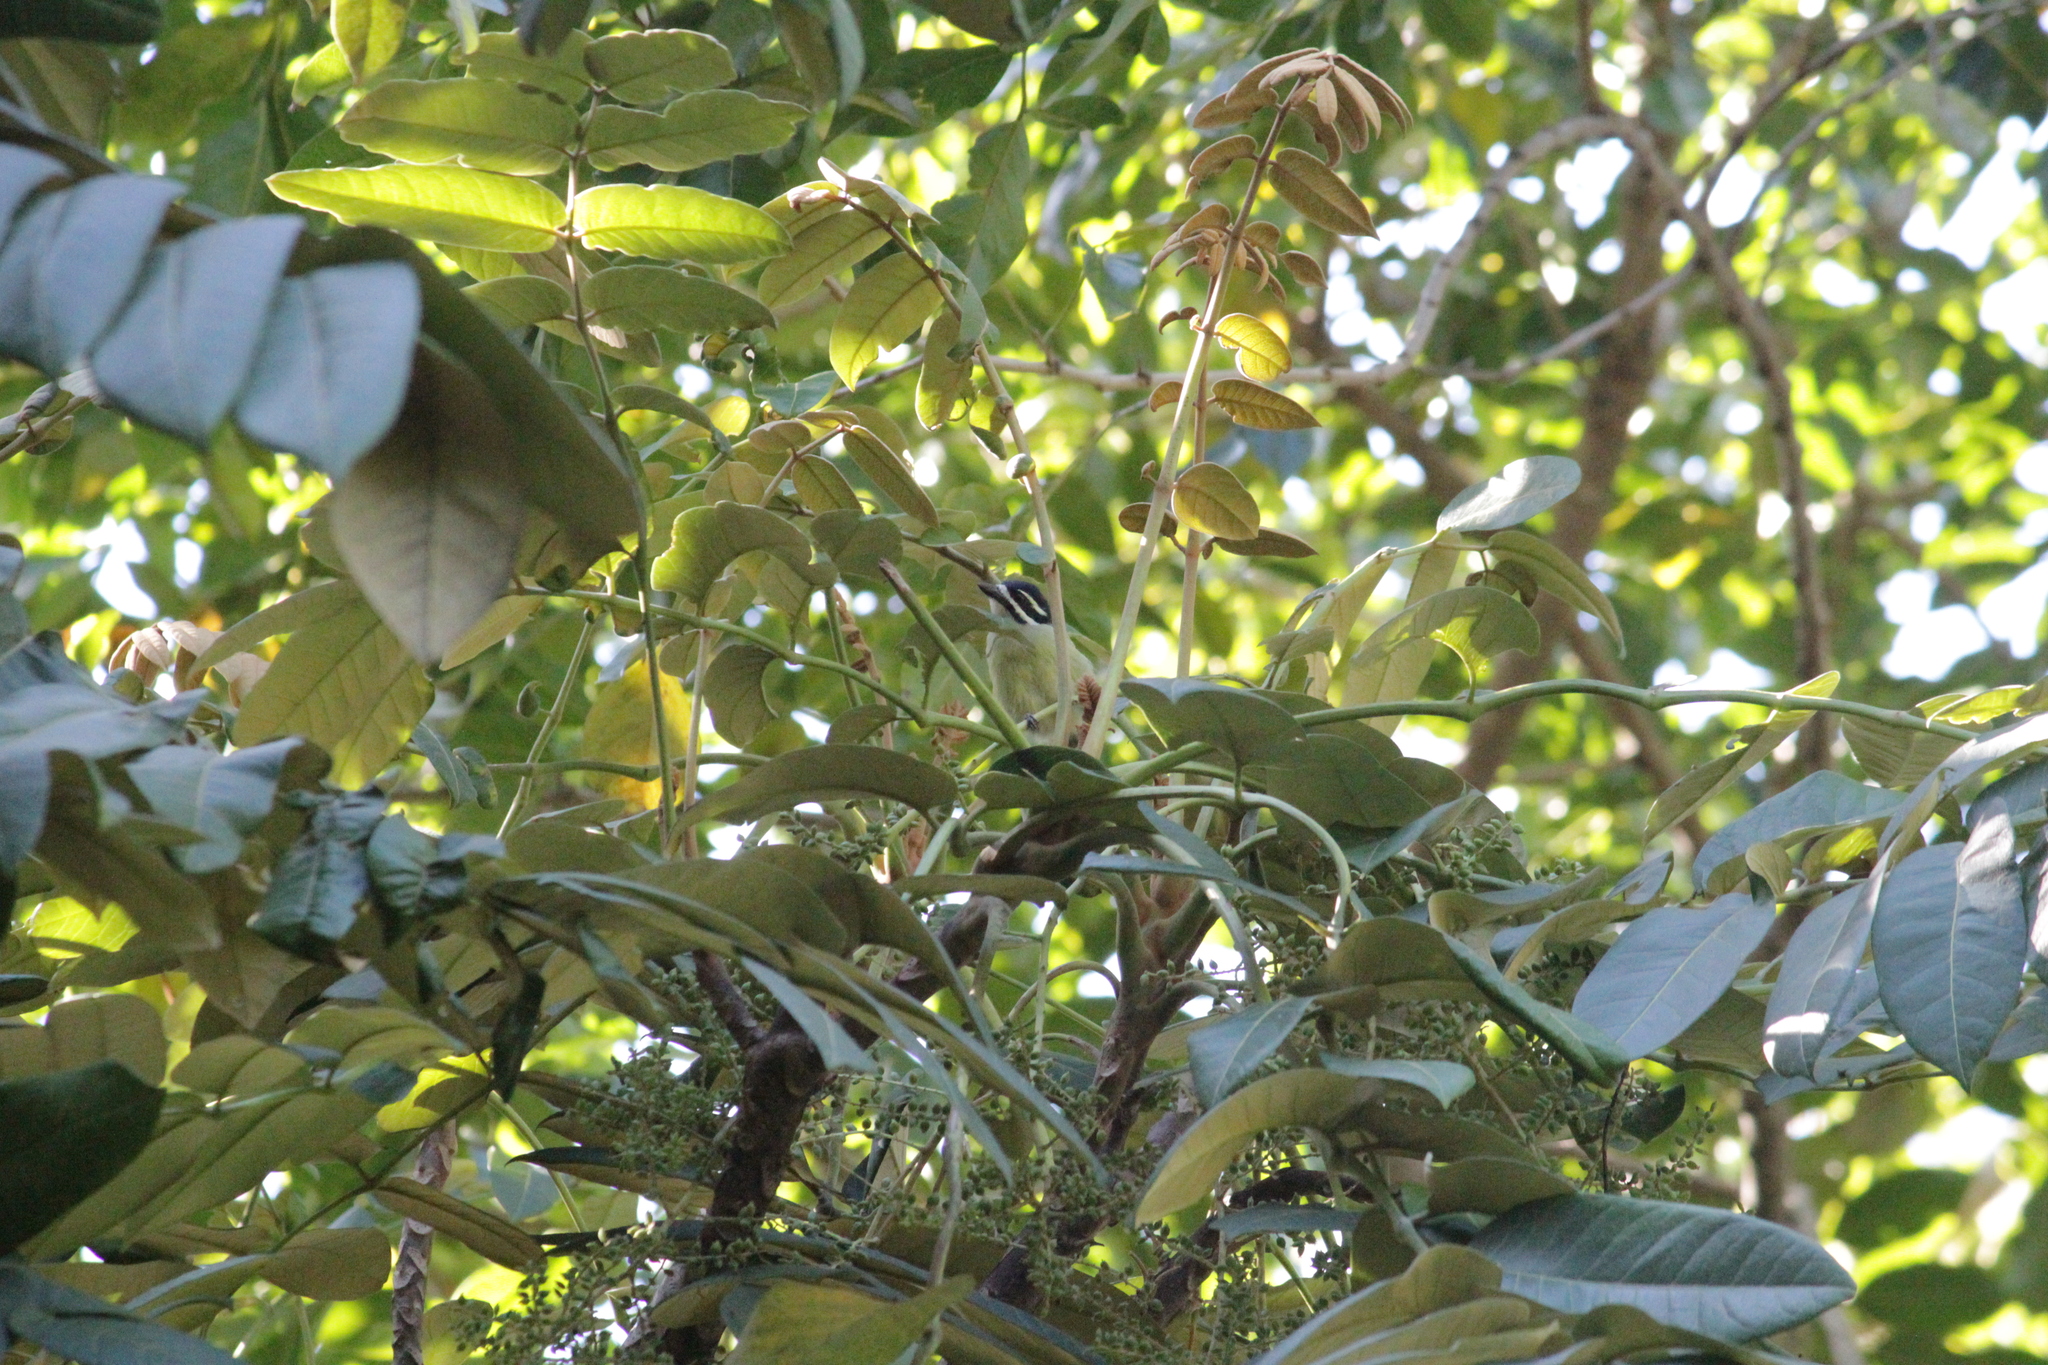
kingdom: Animalia
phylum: Chordata
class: Aves
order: Piciformes
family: Lybiidae
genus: Pogoniulus
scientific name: Pogoniulus bilineatus
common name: Yellow-rumped tinkerbird
